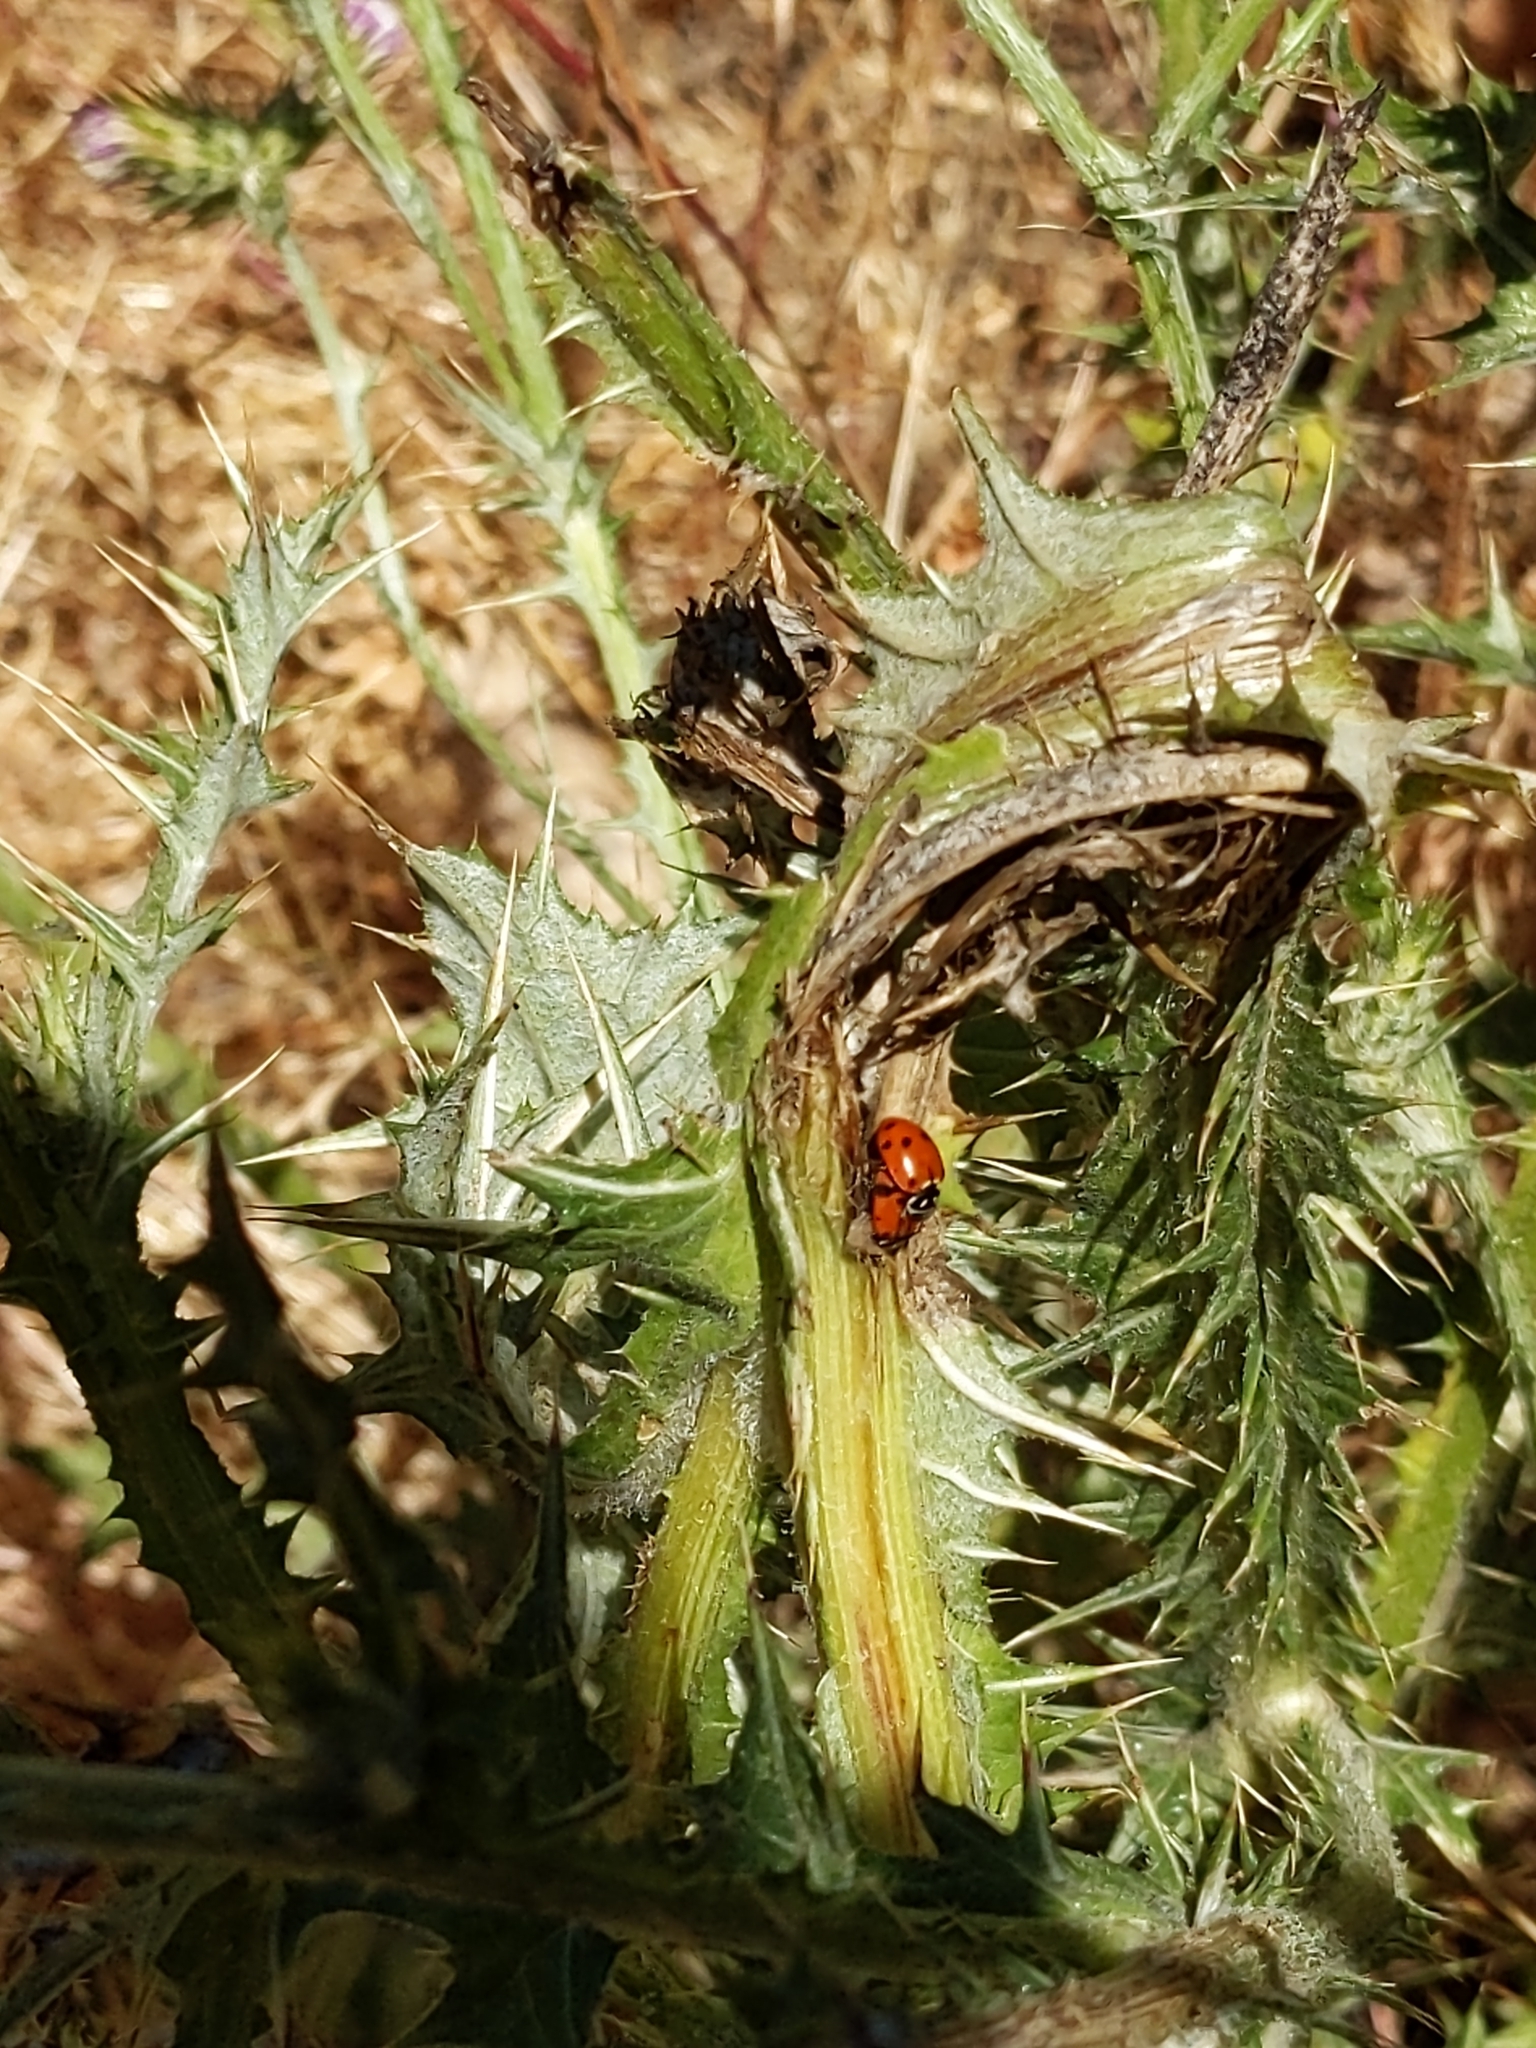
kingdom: Animalia
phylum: Arthropoda
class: Insecta
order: Coleoptera
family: Coccinellidae
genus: Hippodamia
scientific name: Hippodamia convergens
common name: Convergent lady beetle
